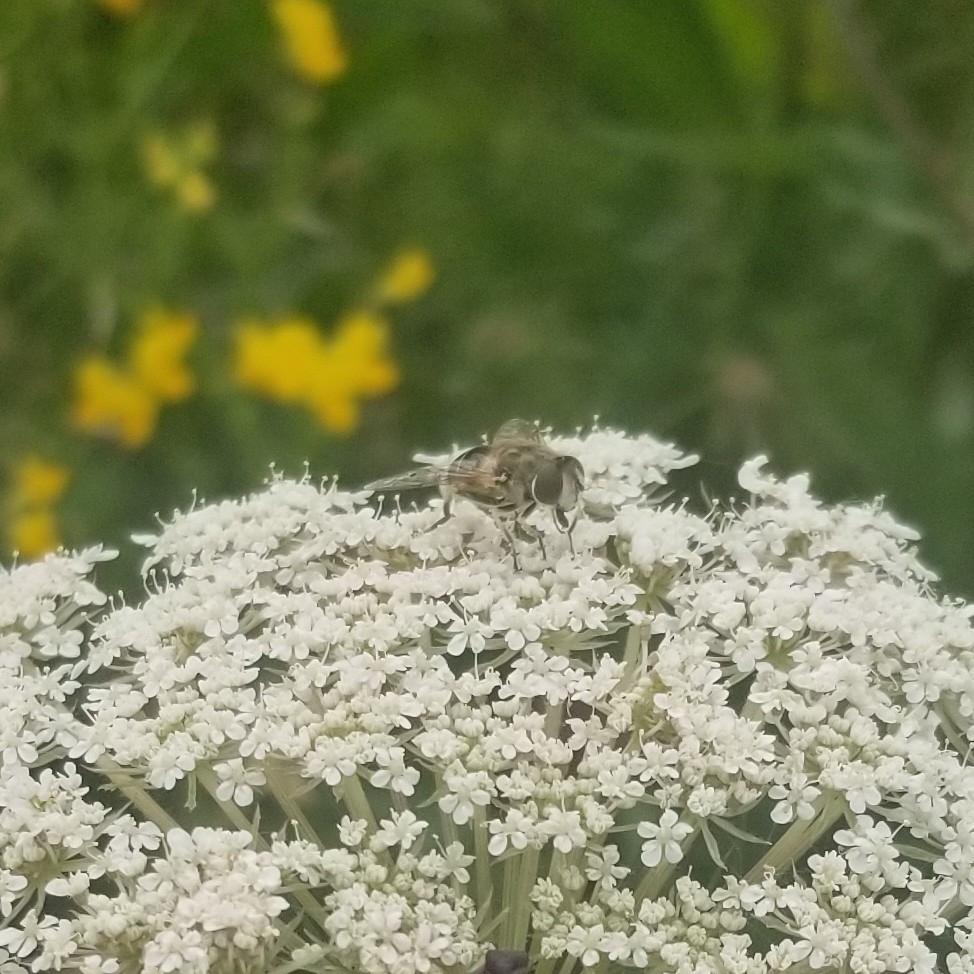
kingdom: Animalia
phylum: Arthropoda
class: Insecta
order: Diptera
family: Syrphidae
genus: Eristalis
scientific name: Eristalis arbustorum
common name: Hover fly
